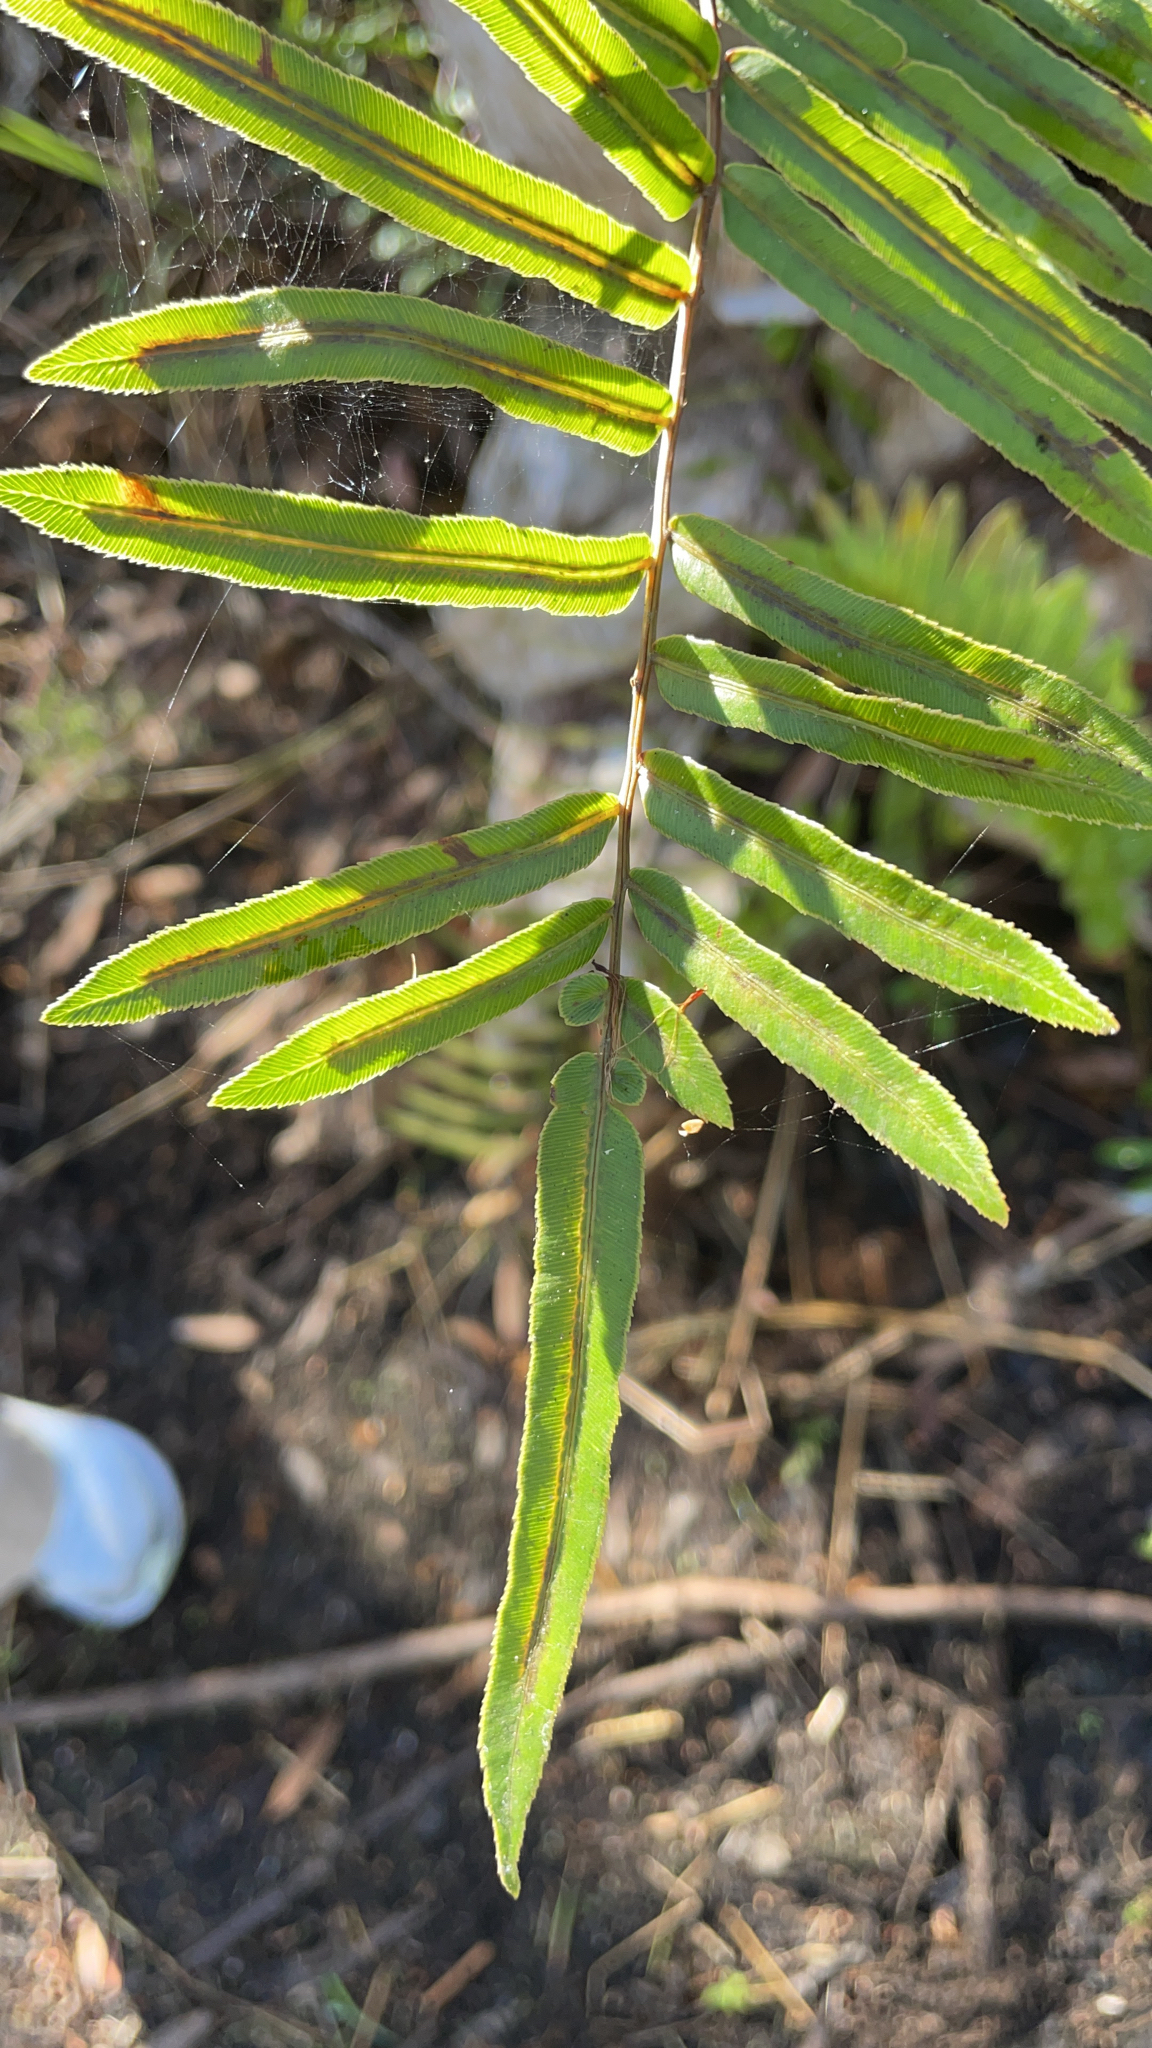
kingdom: Plantae
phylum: Tracheophyta
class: Polypodiopsida
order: Polypodiales
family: Blechnaceae
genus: Telmatoblechnum
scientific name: Telmatoblechnum serrulatum
